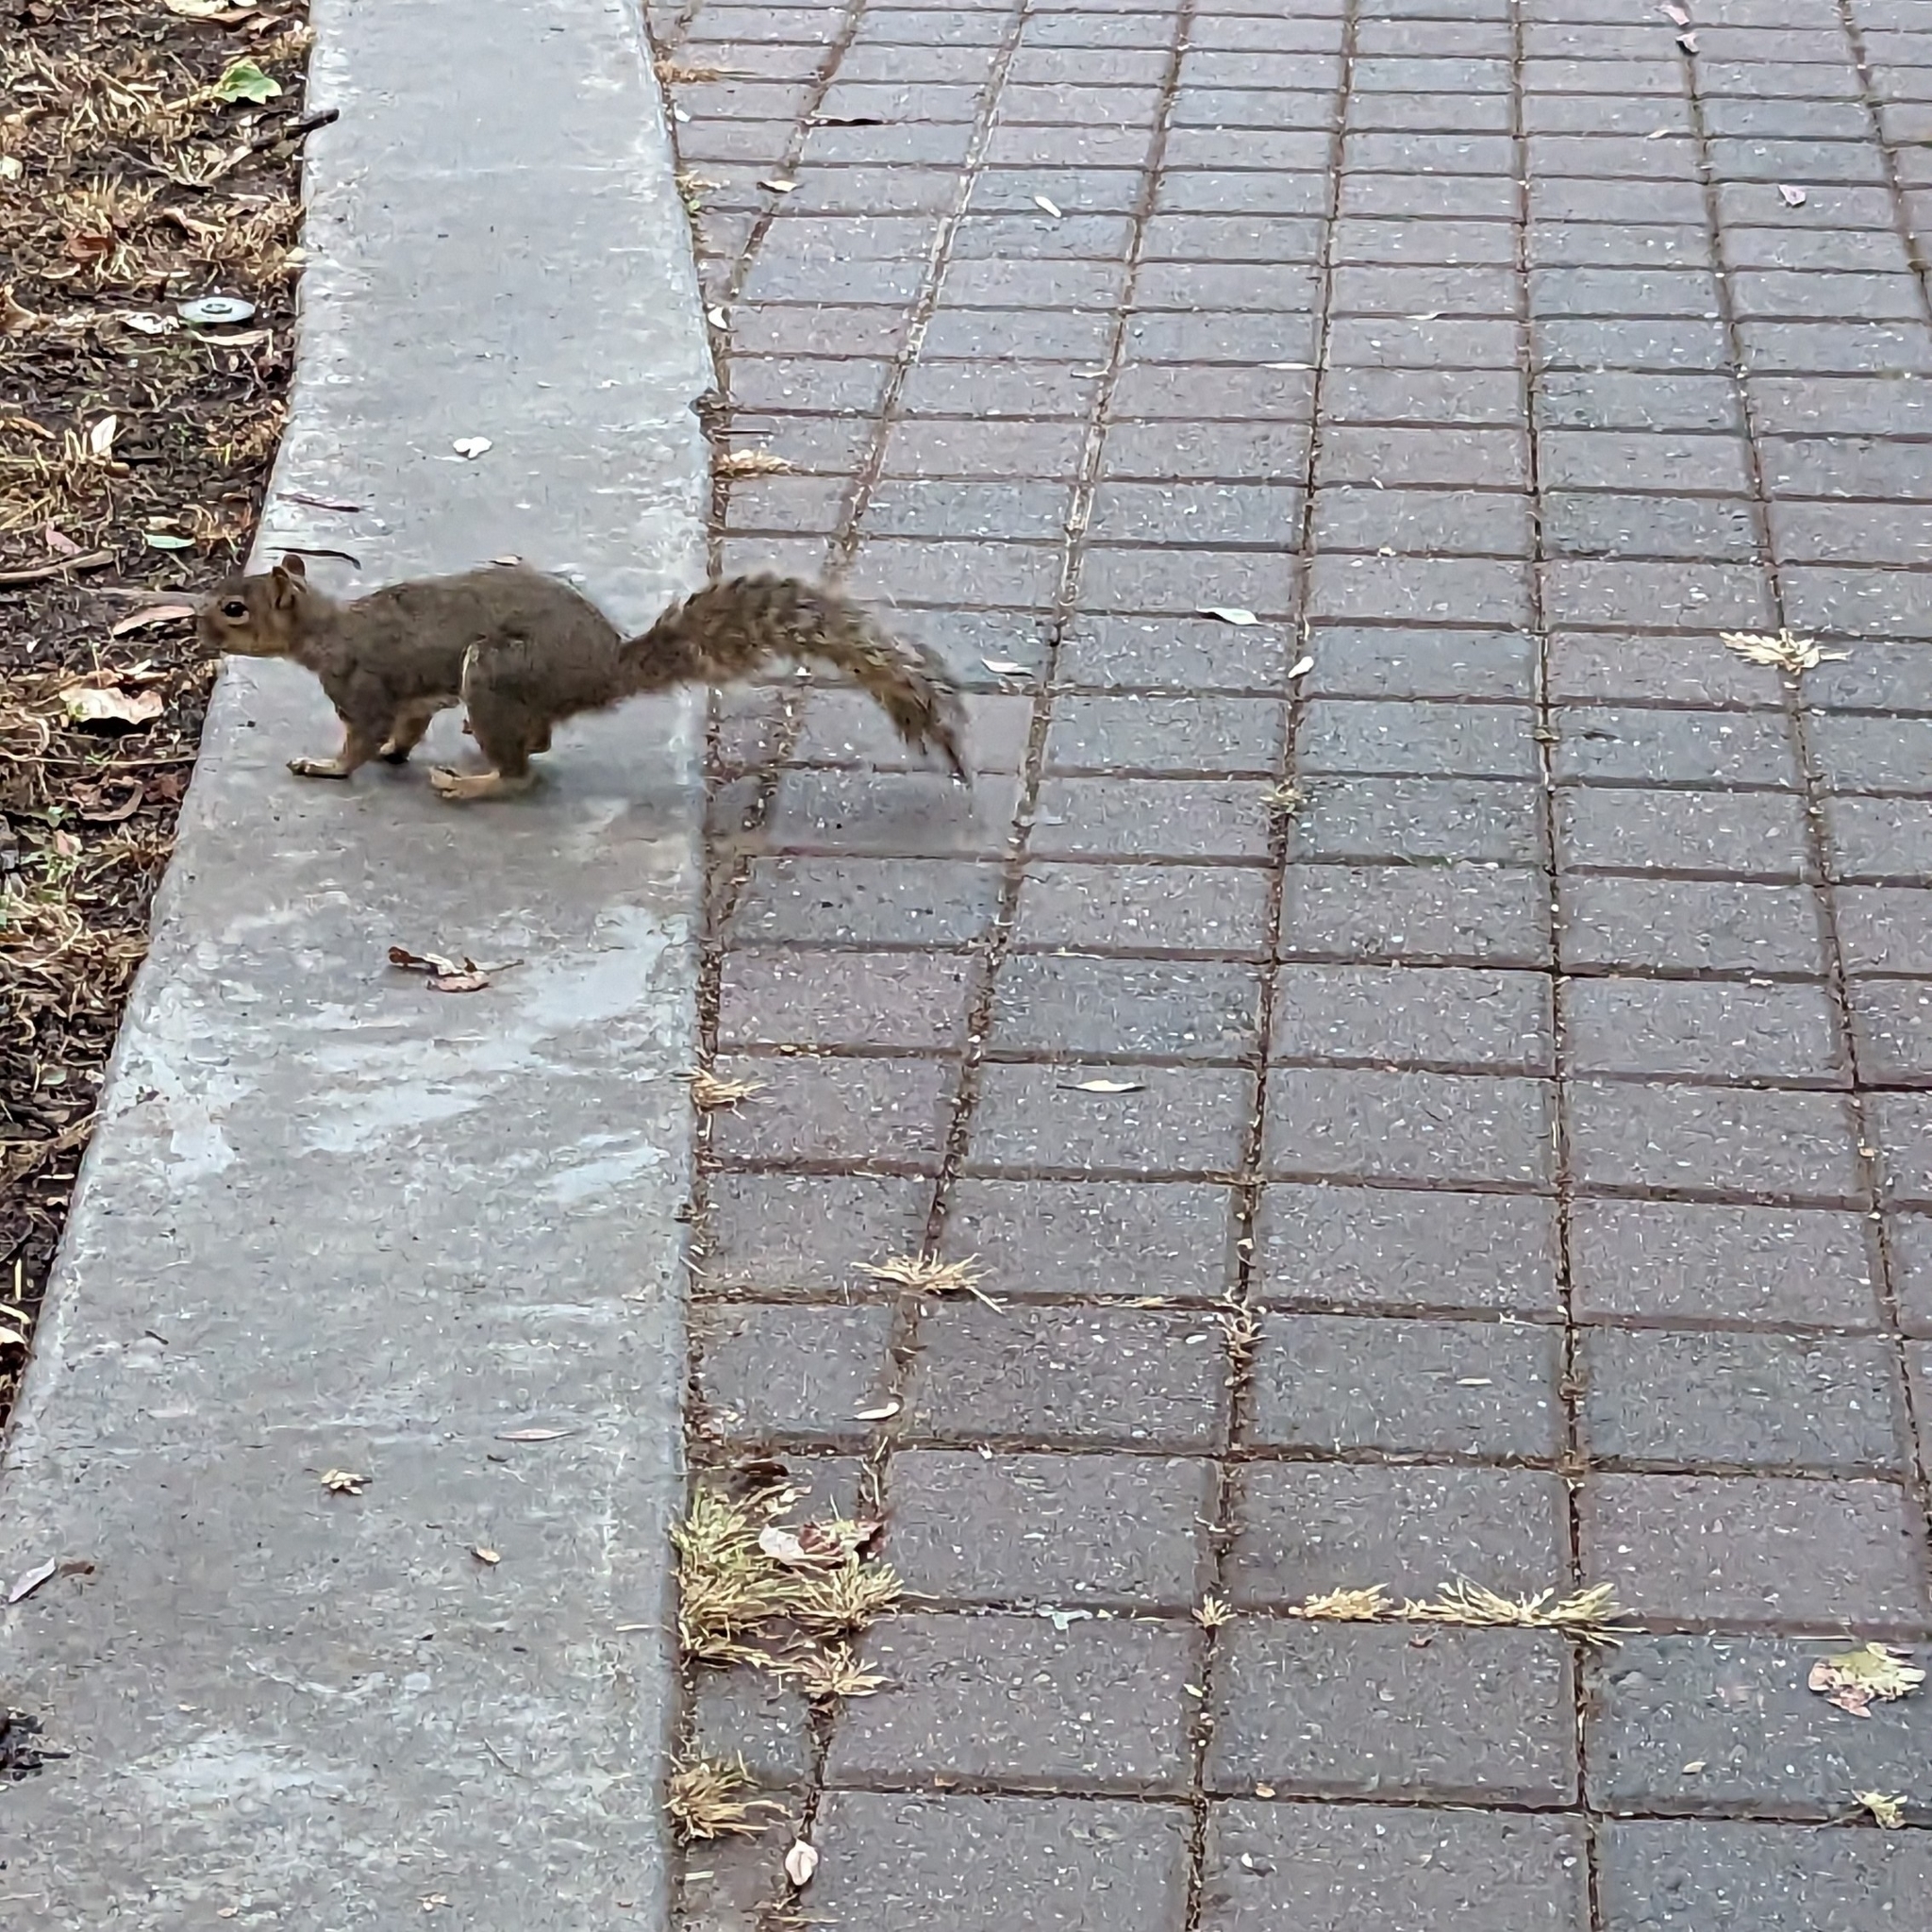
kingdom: Animalia
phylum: Chordata
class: Mammalia
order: Rodentia
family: Sciuridae
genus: Sciurus
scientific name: Sciurus niger
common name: Fox squirrel
